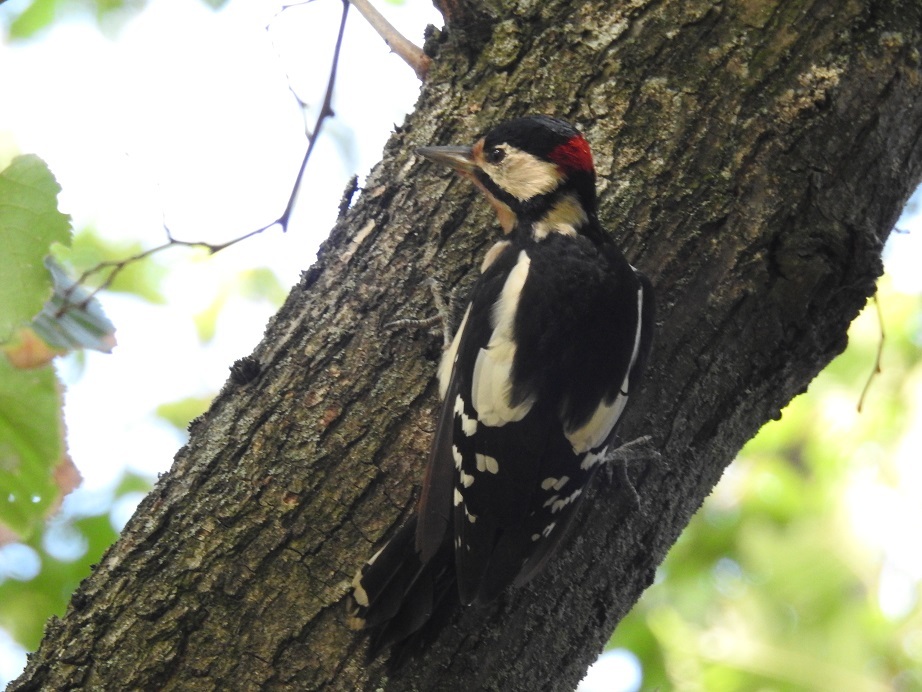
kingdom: Animalia
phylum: Chordata
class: Aves
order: Piciformes
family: Picidae
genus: Dendrocopos
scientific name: Dendrocopos major
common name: Great spotted woodpecker
